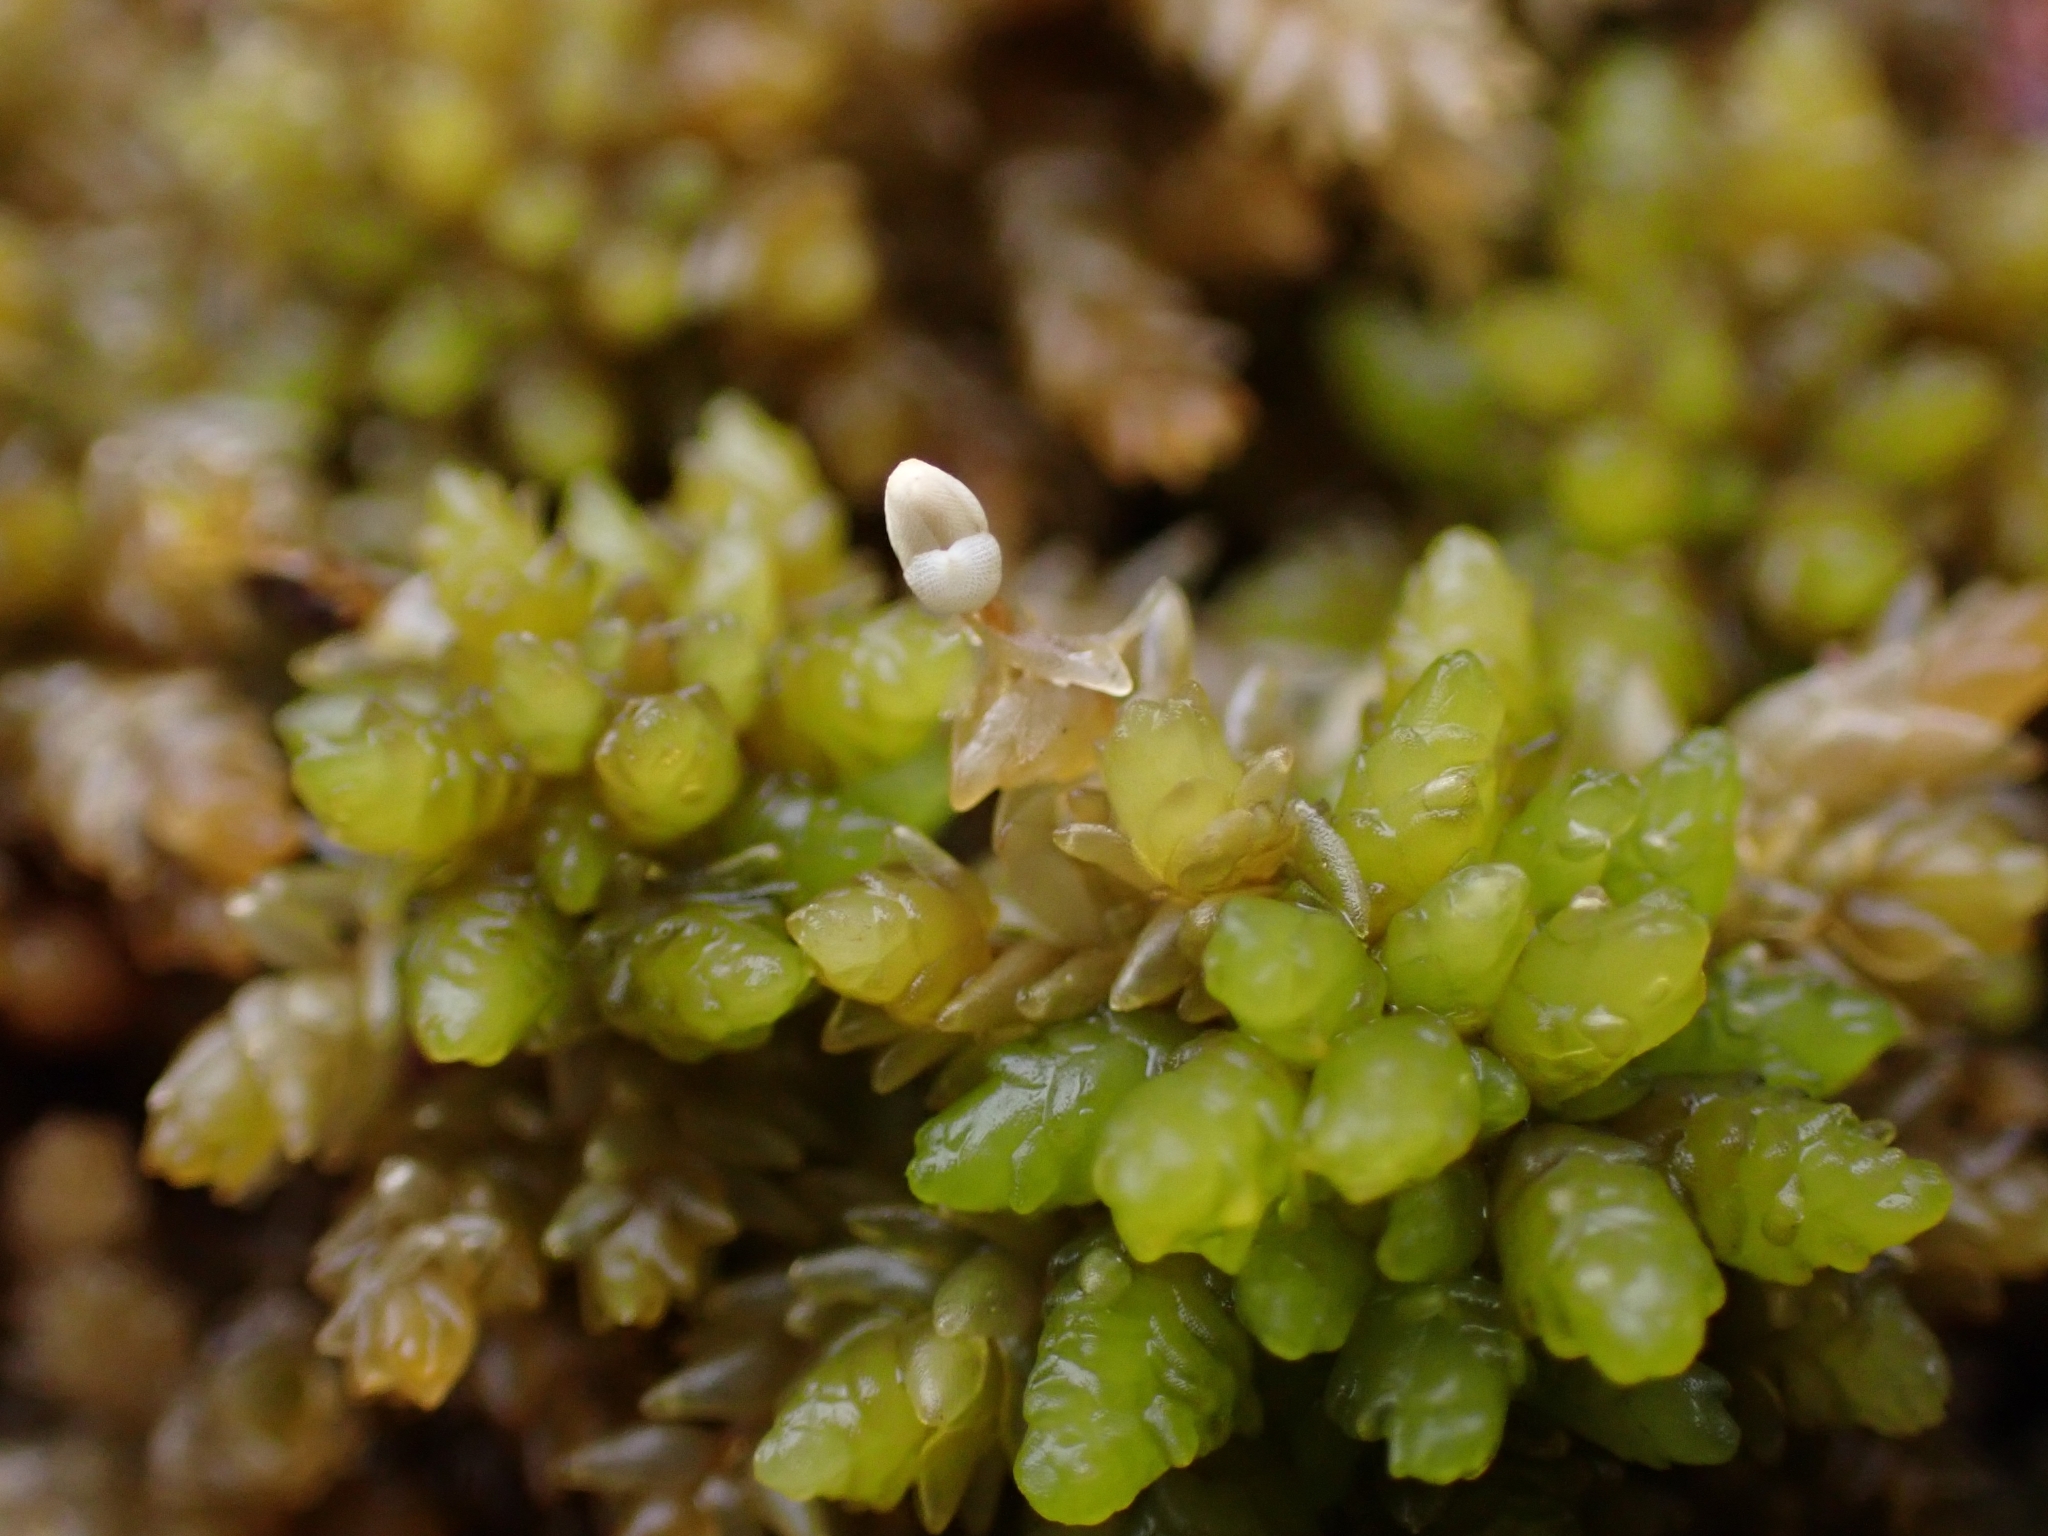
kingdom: Plantae
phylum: Bryophyta
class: Sphagnopsida
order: Sphagnales
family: Sphagnaceae
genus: Sphagnum
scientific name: Sphagnum papillosum
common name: Papillose peat moss
